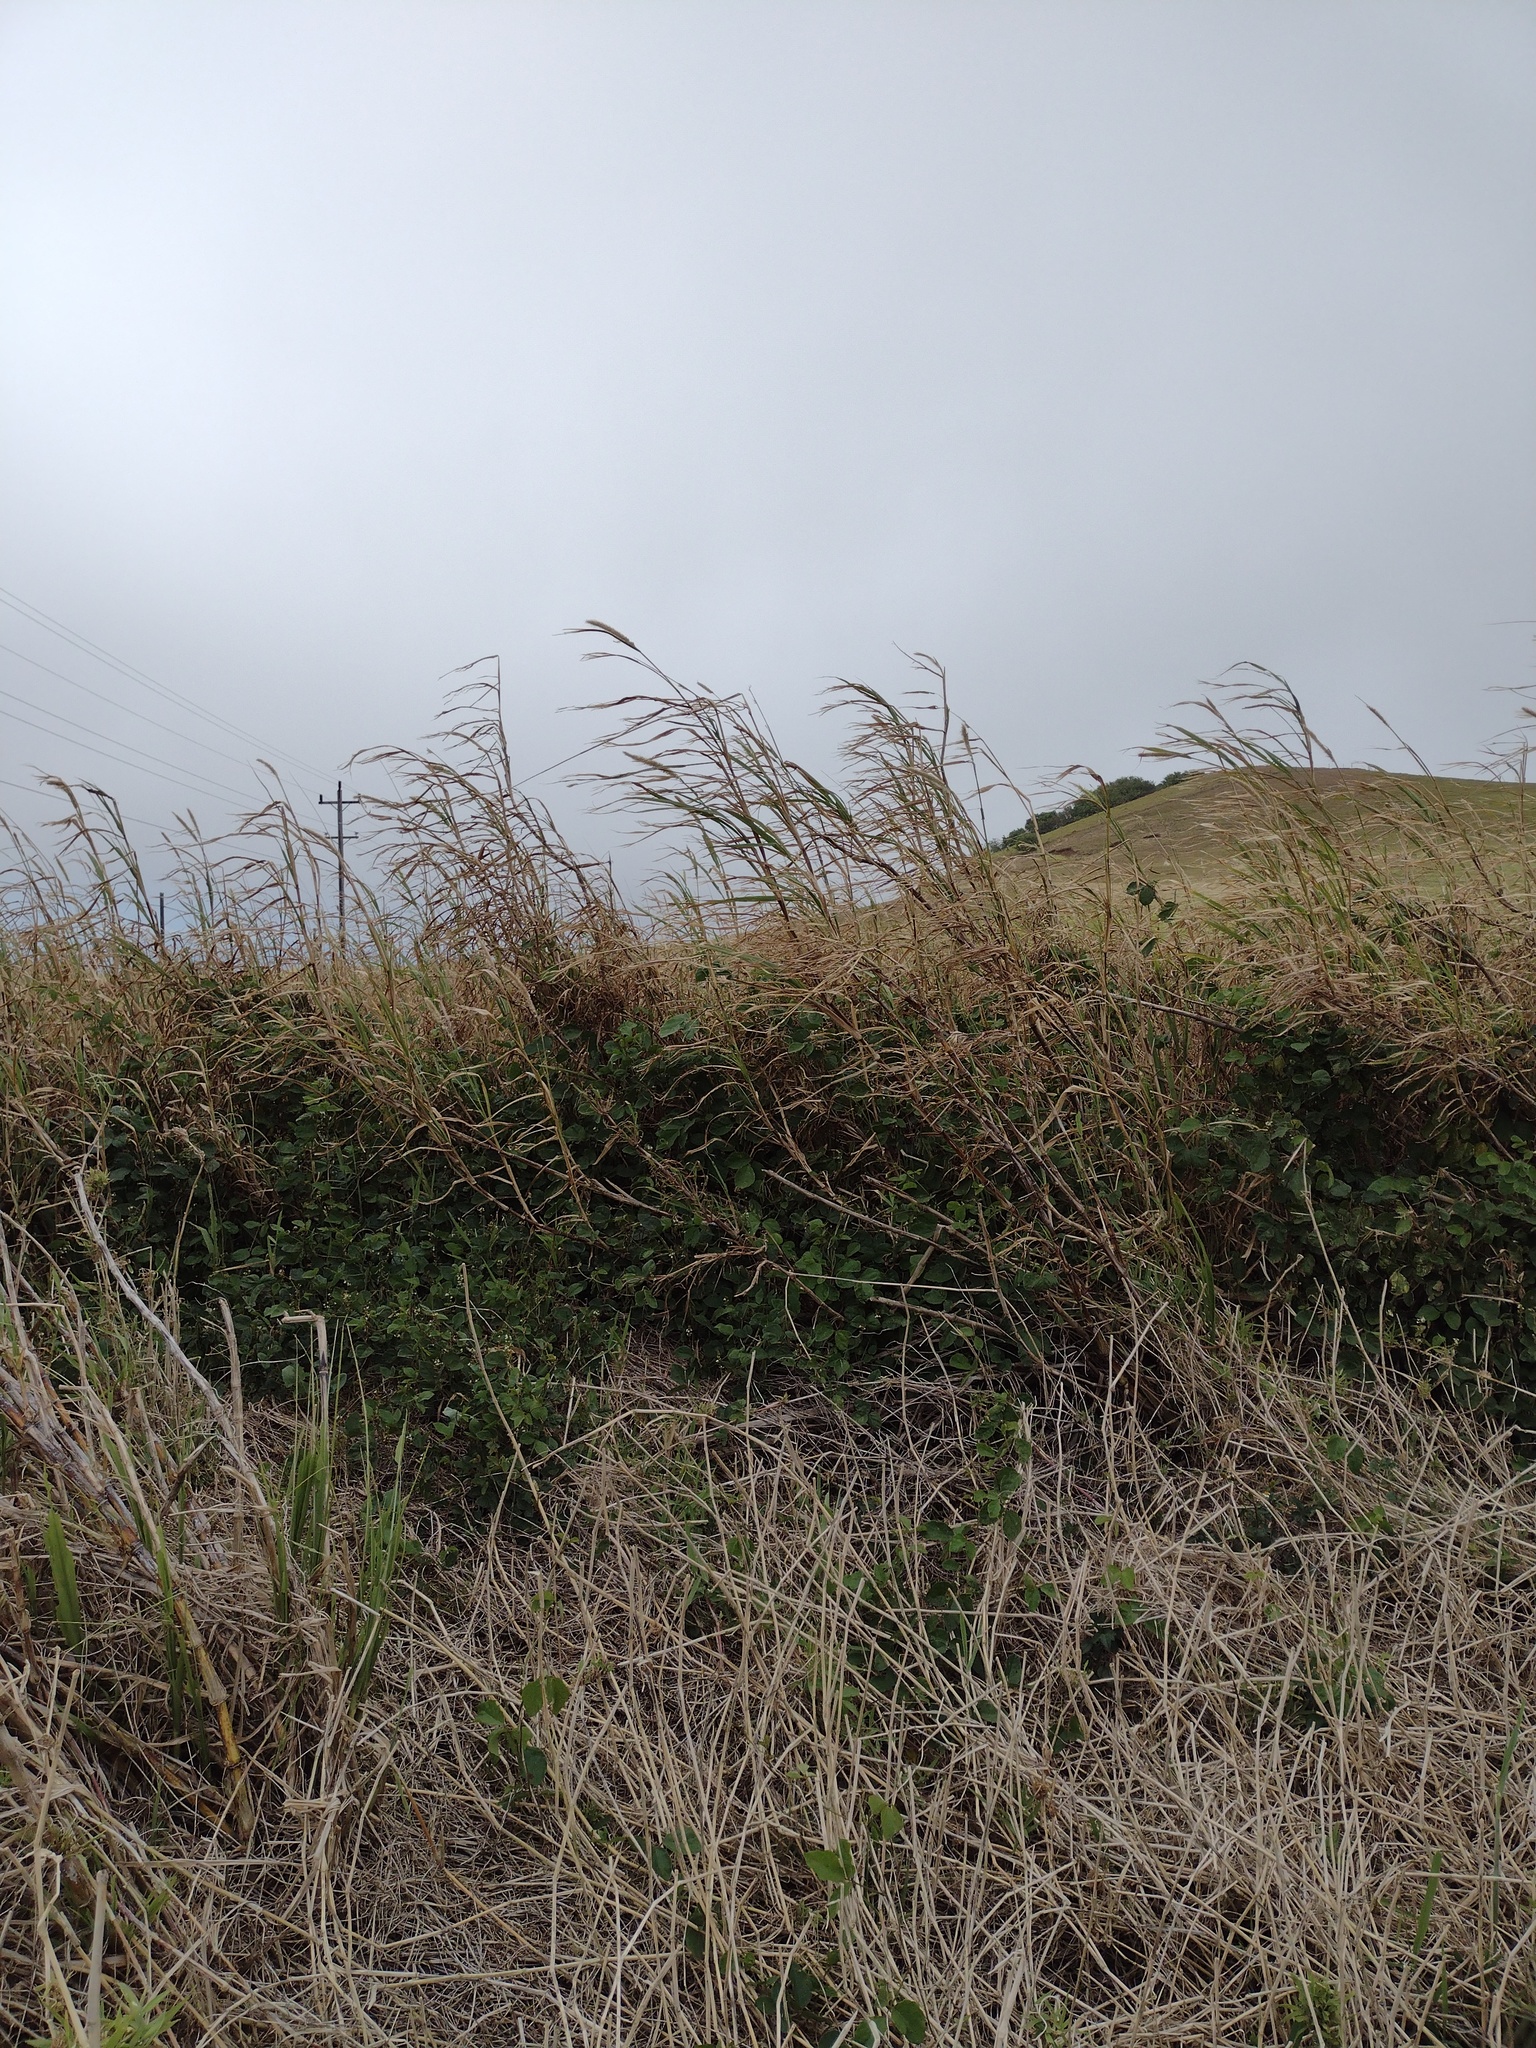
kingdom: Plantae
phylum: Tracheophyta
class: Liliopsida
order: Poales
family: Poaceae
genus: Cenchrus
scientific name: Cenchrus purpureus
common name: Elephant grass
